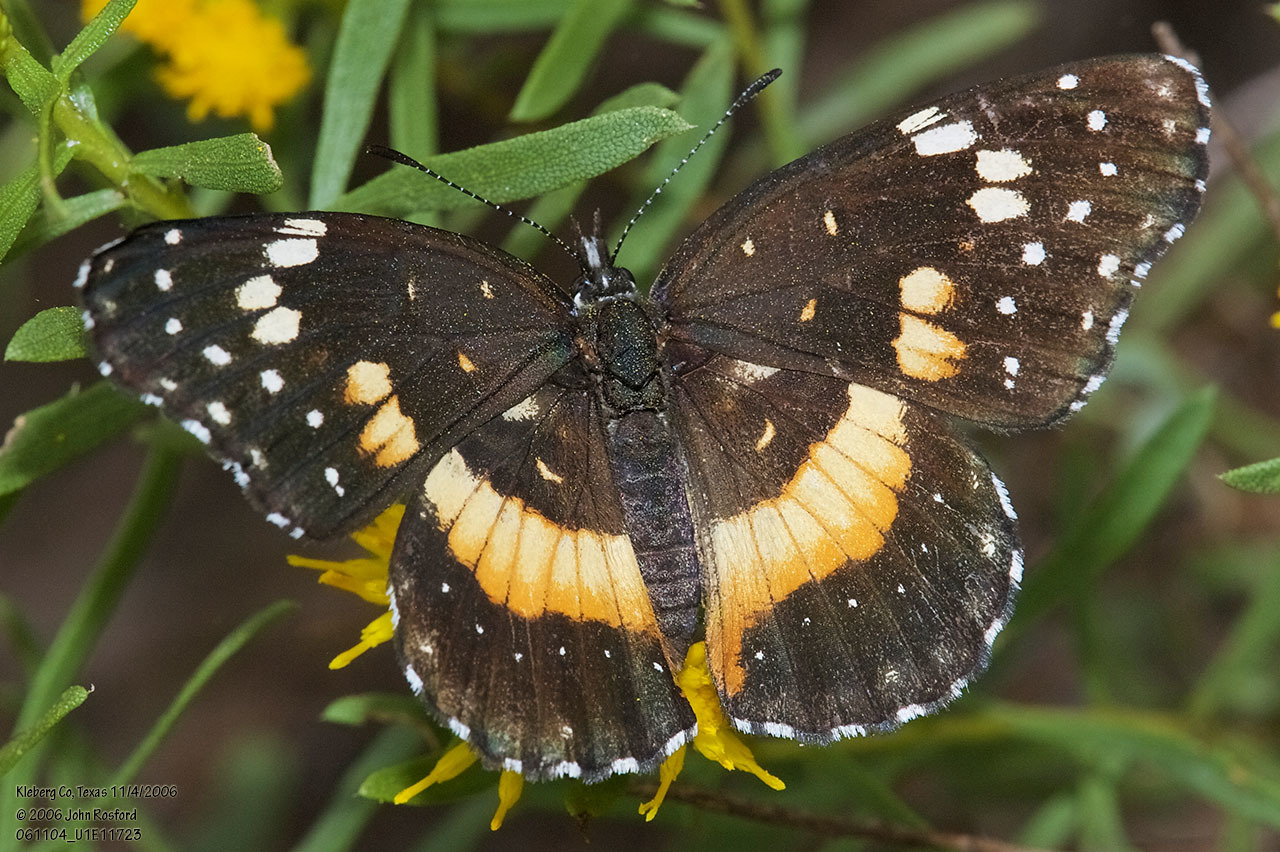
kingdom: Animalia
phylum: Arthropoda
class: Insecta
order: Lepidoptera
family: Nymphalidae
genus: Chlosyne
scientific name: Chlosyne lacinia
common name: Bordered patch
